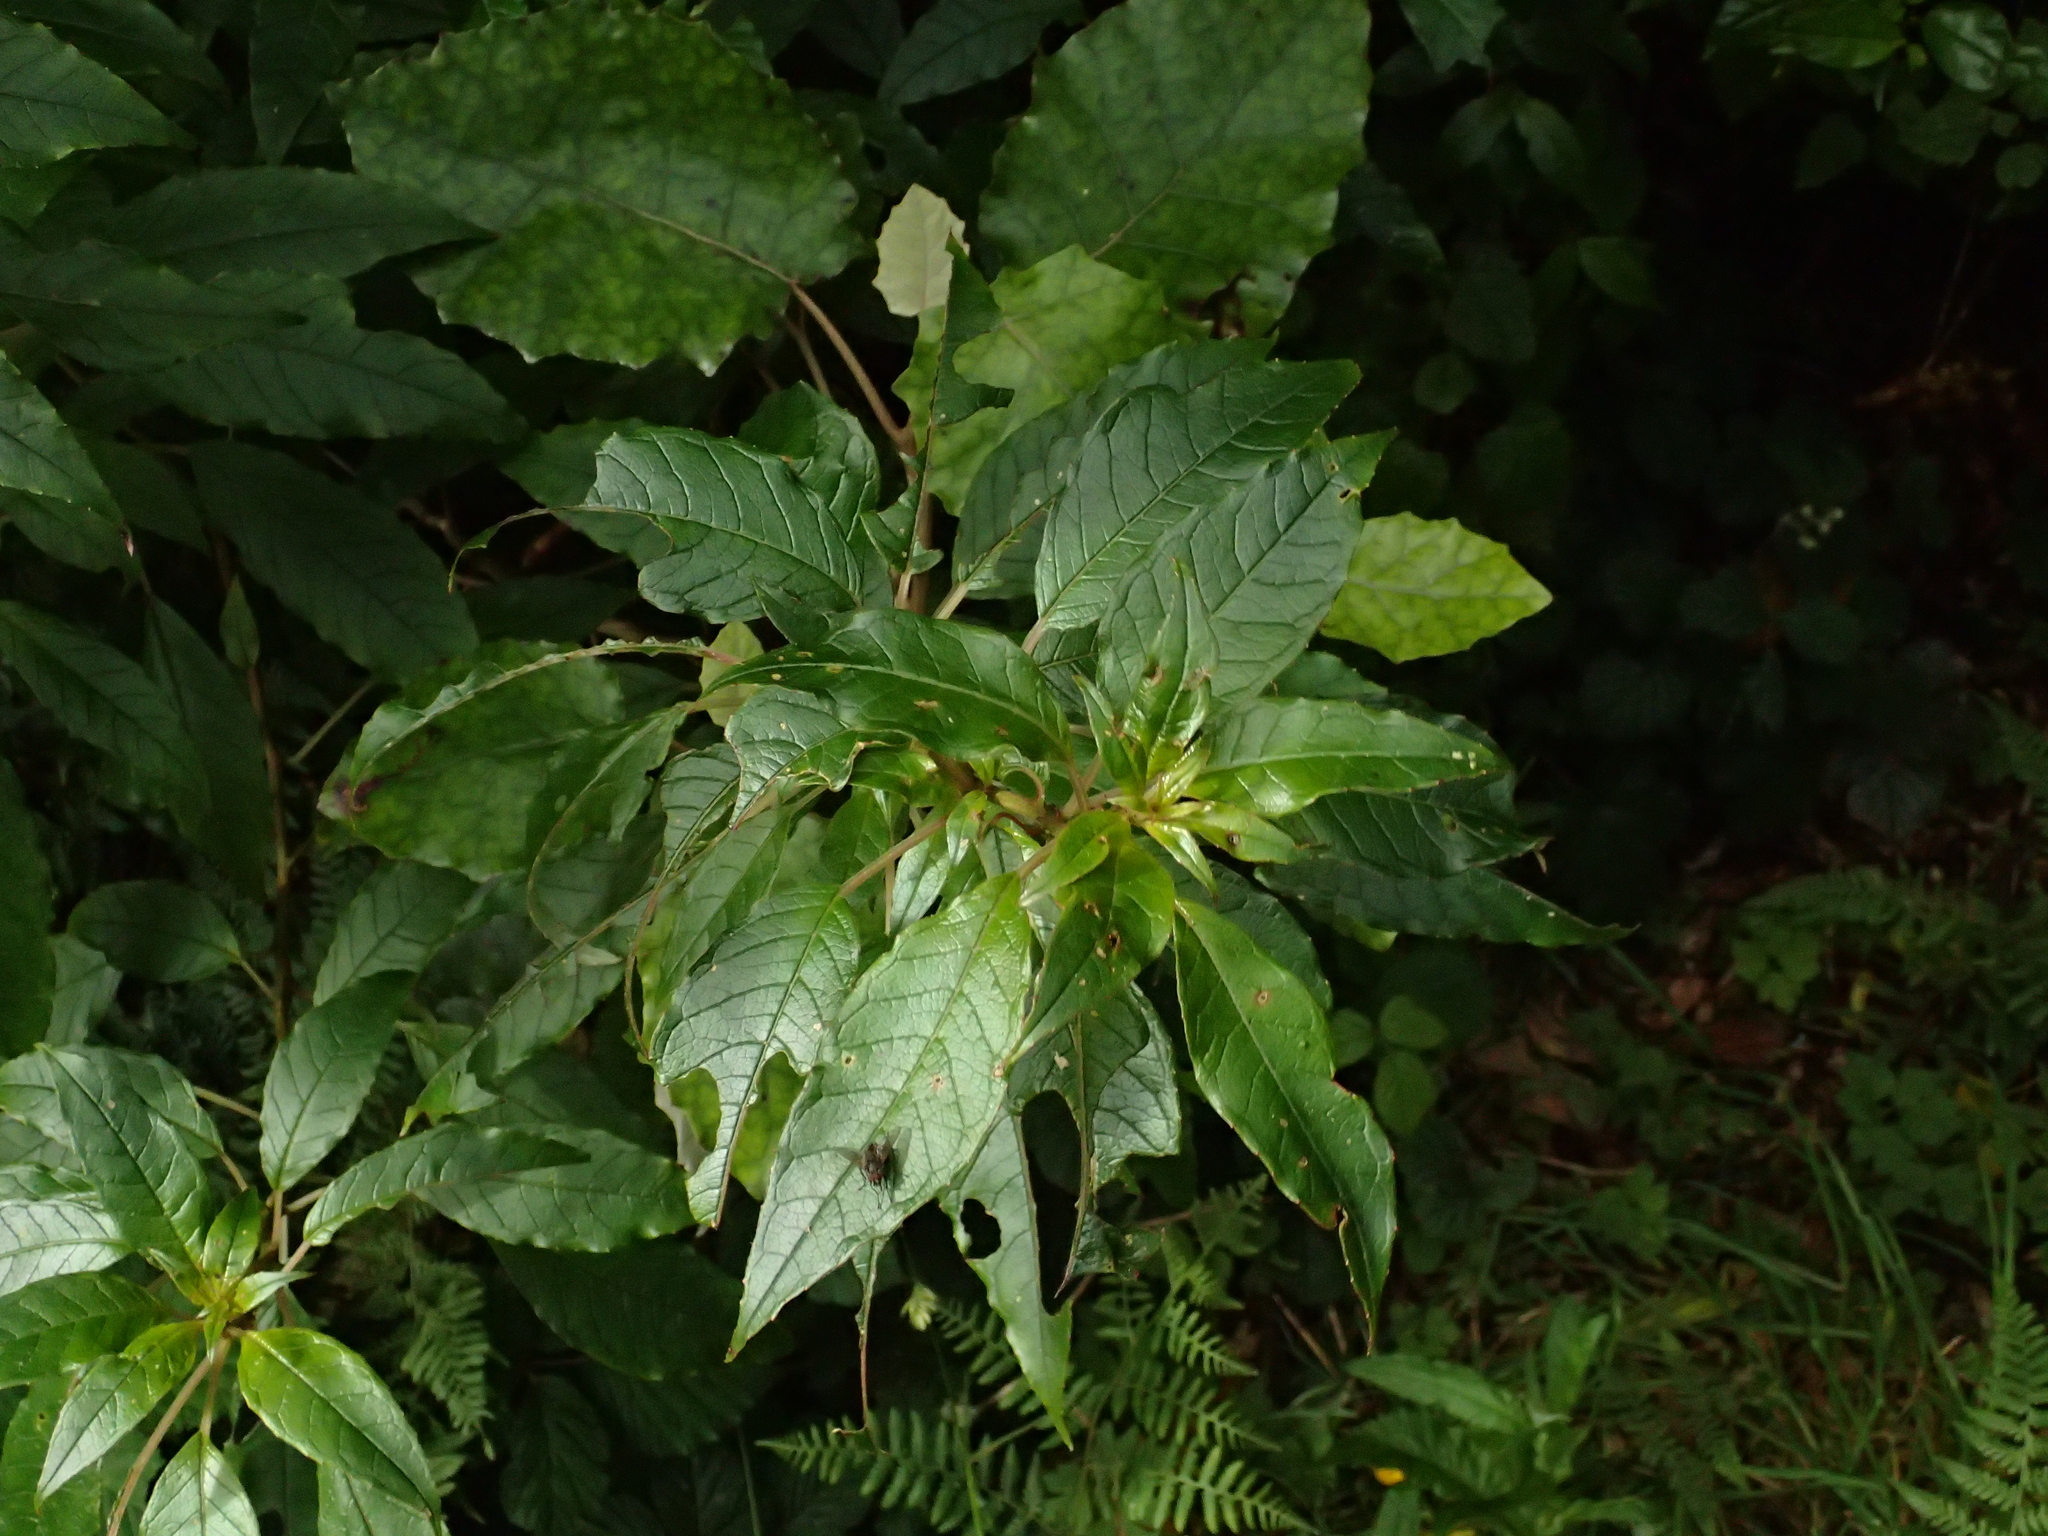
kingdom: Plantae
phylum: Tracheophyta
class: Magnoliopsida
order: Myrtales
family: Onagraceae
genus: Fuchsia
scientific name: Fuchsia excorticata
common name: Tree fuchsia
